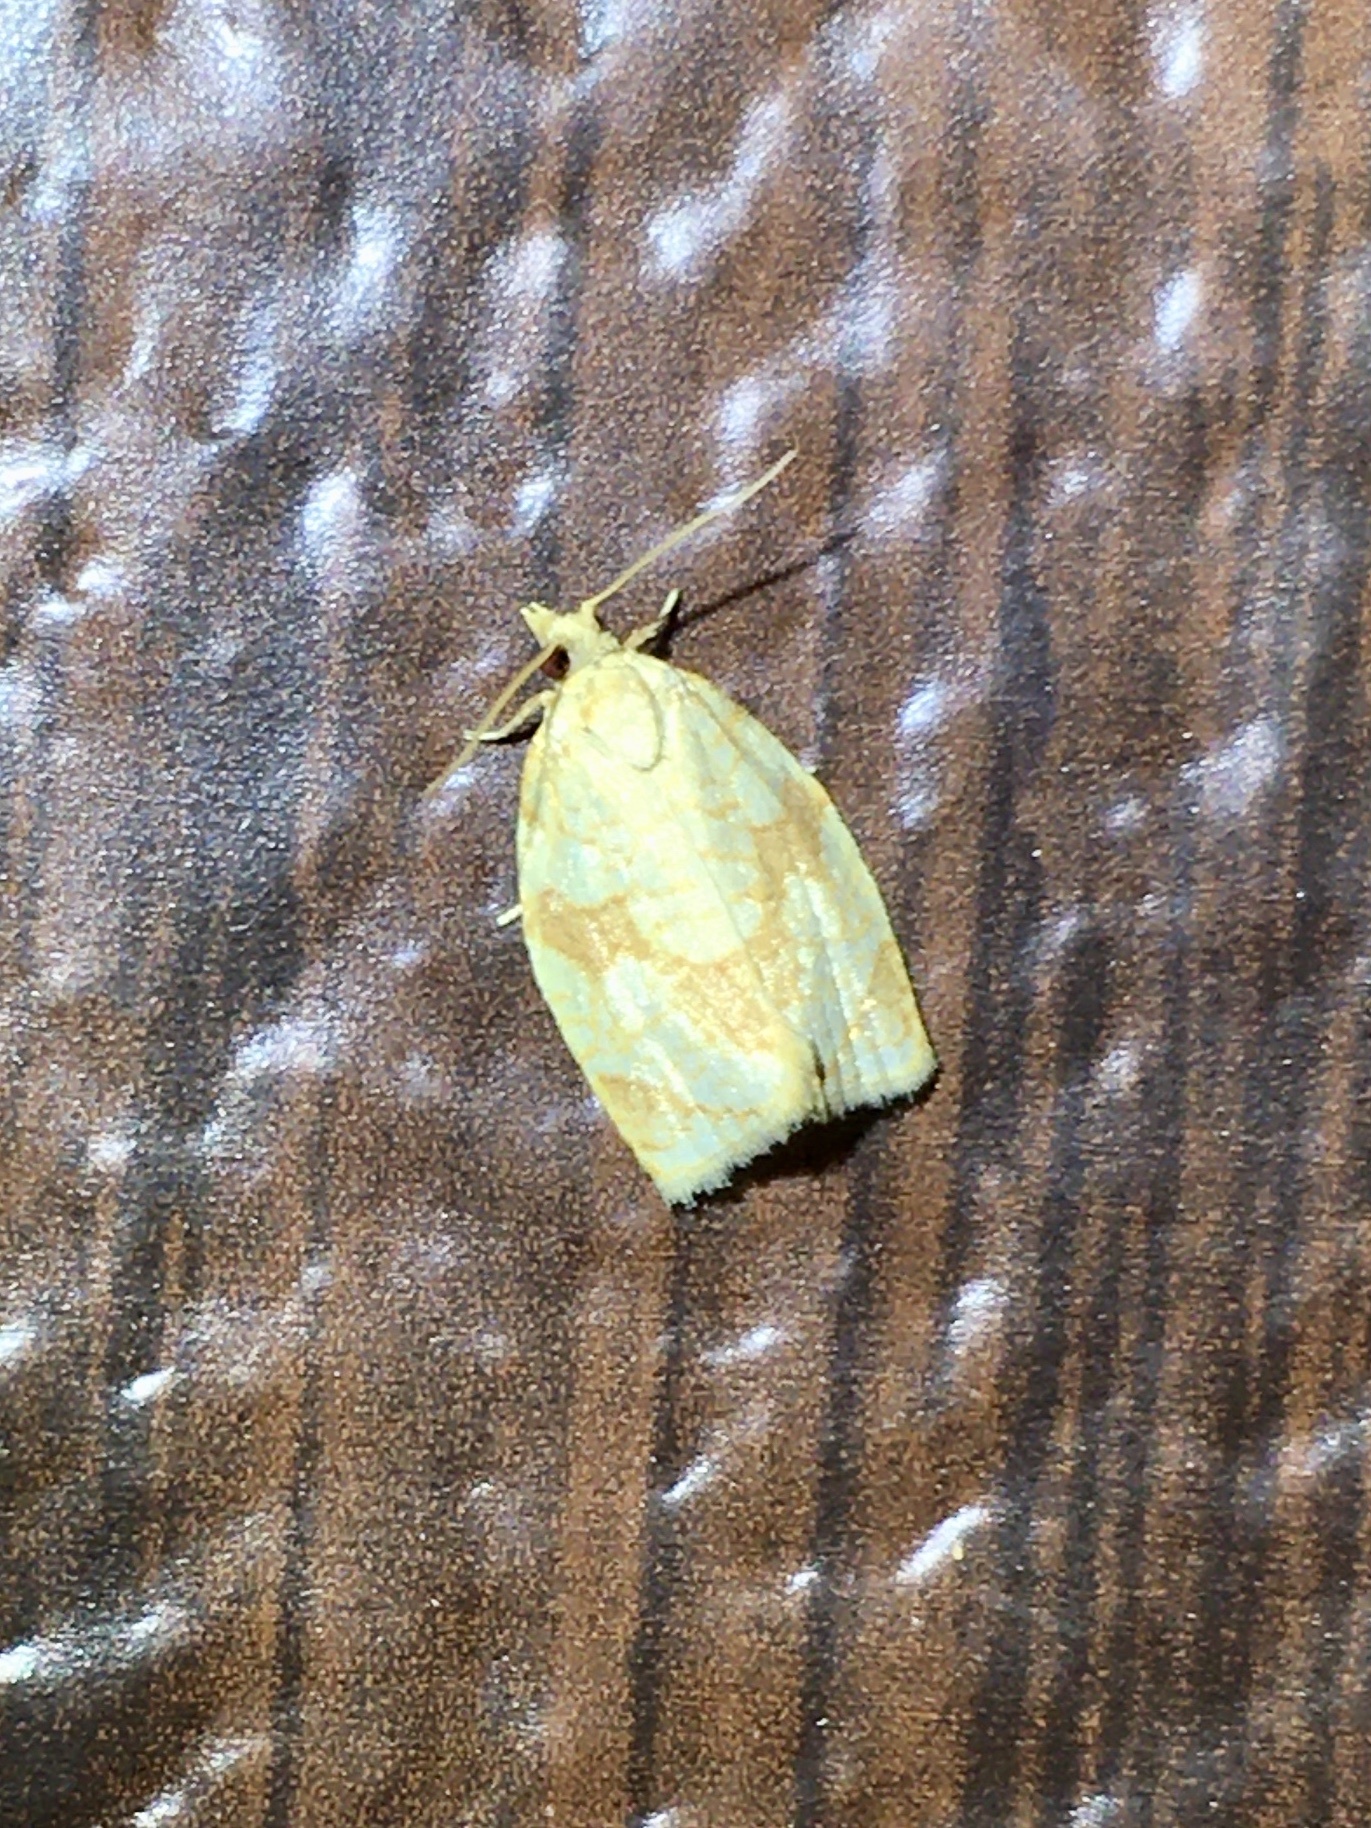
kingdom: Animalia
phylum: Arthropoda
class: Insecta
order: Lepidoptera
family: Tortricidae
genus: Adoxophyes
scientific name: Adoxophyes negundana
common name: Shimmering gold adoxophyes moth
